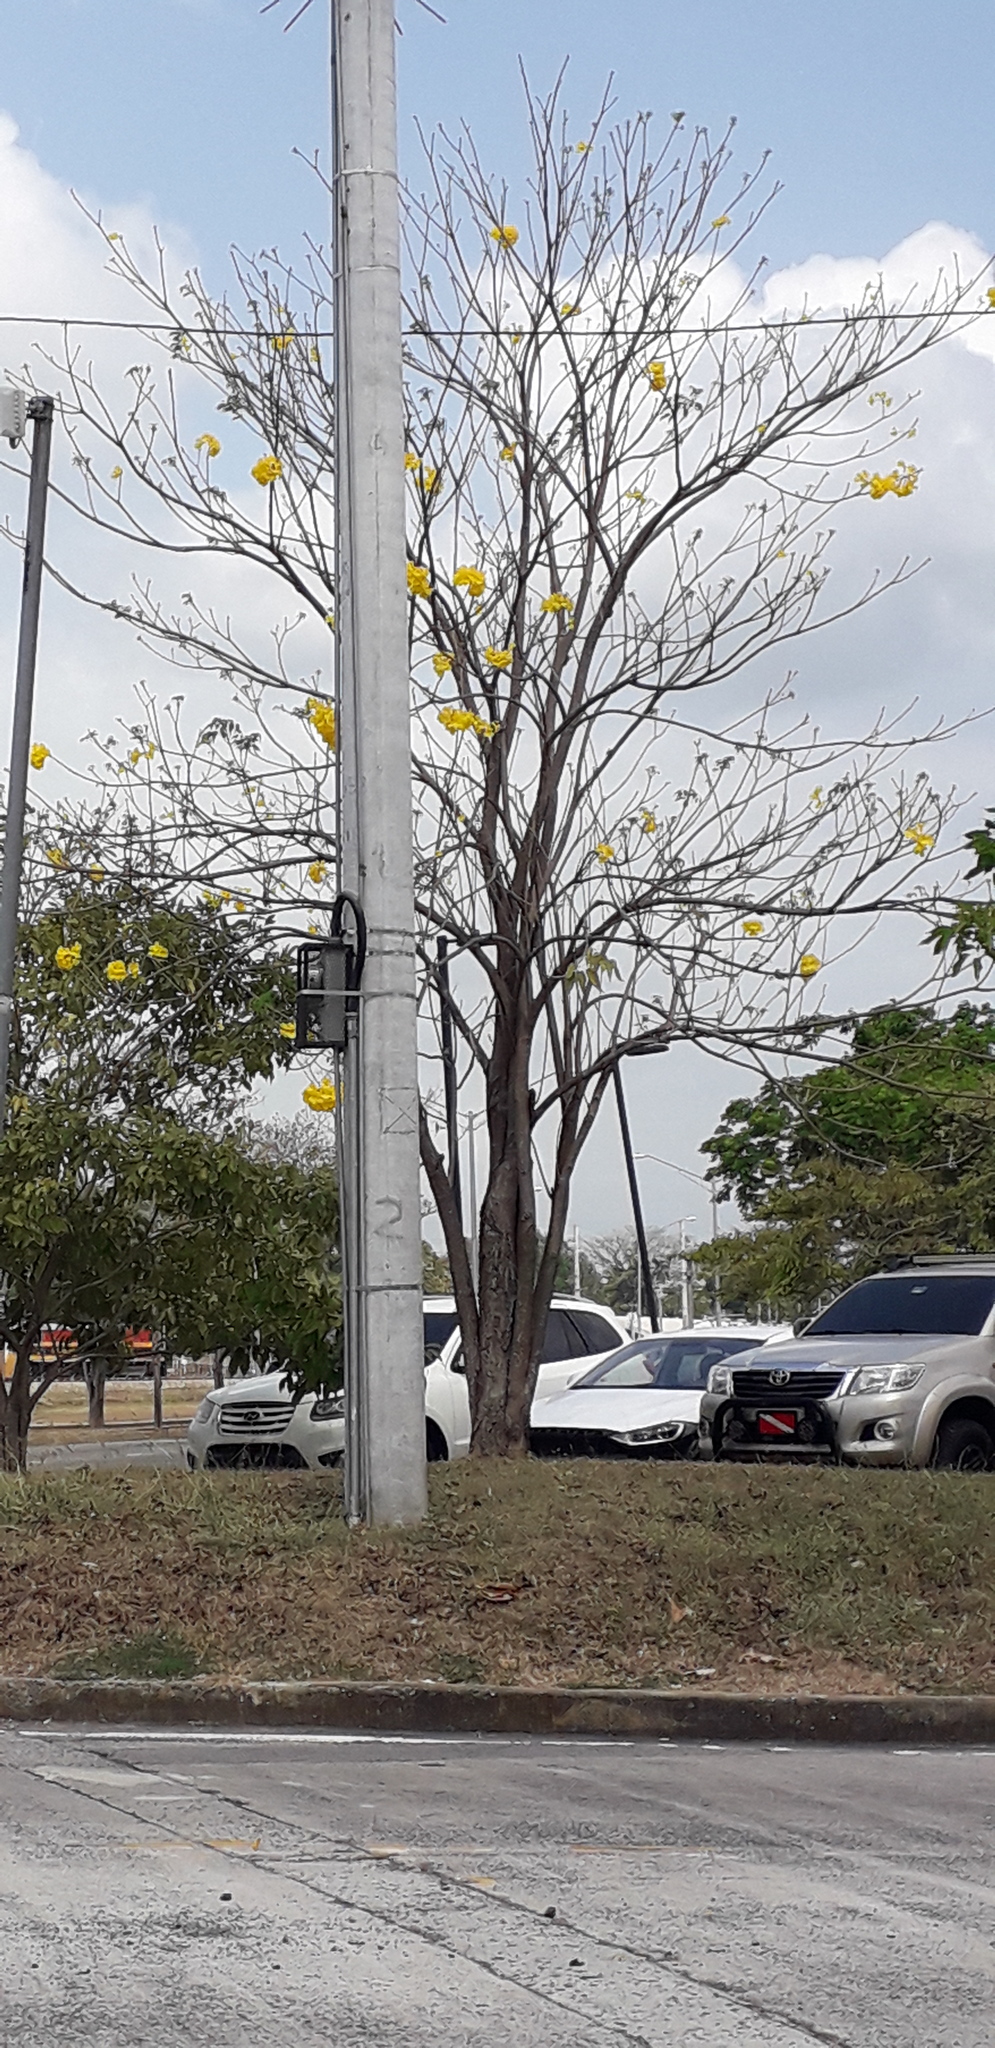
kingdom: Plantae
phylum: Tracheophyta
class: Magnoliopsida
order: Lamiales
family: Bignoniaceae
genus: Handroanthus
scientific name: Handroanthus guayacan
